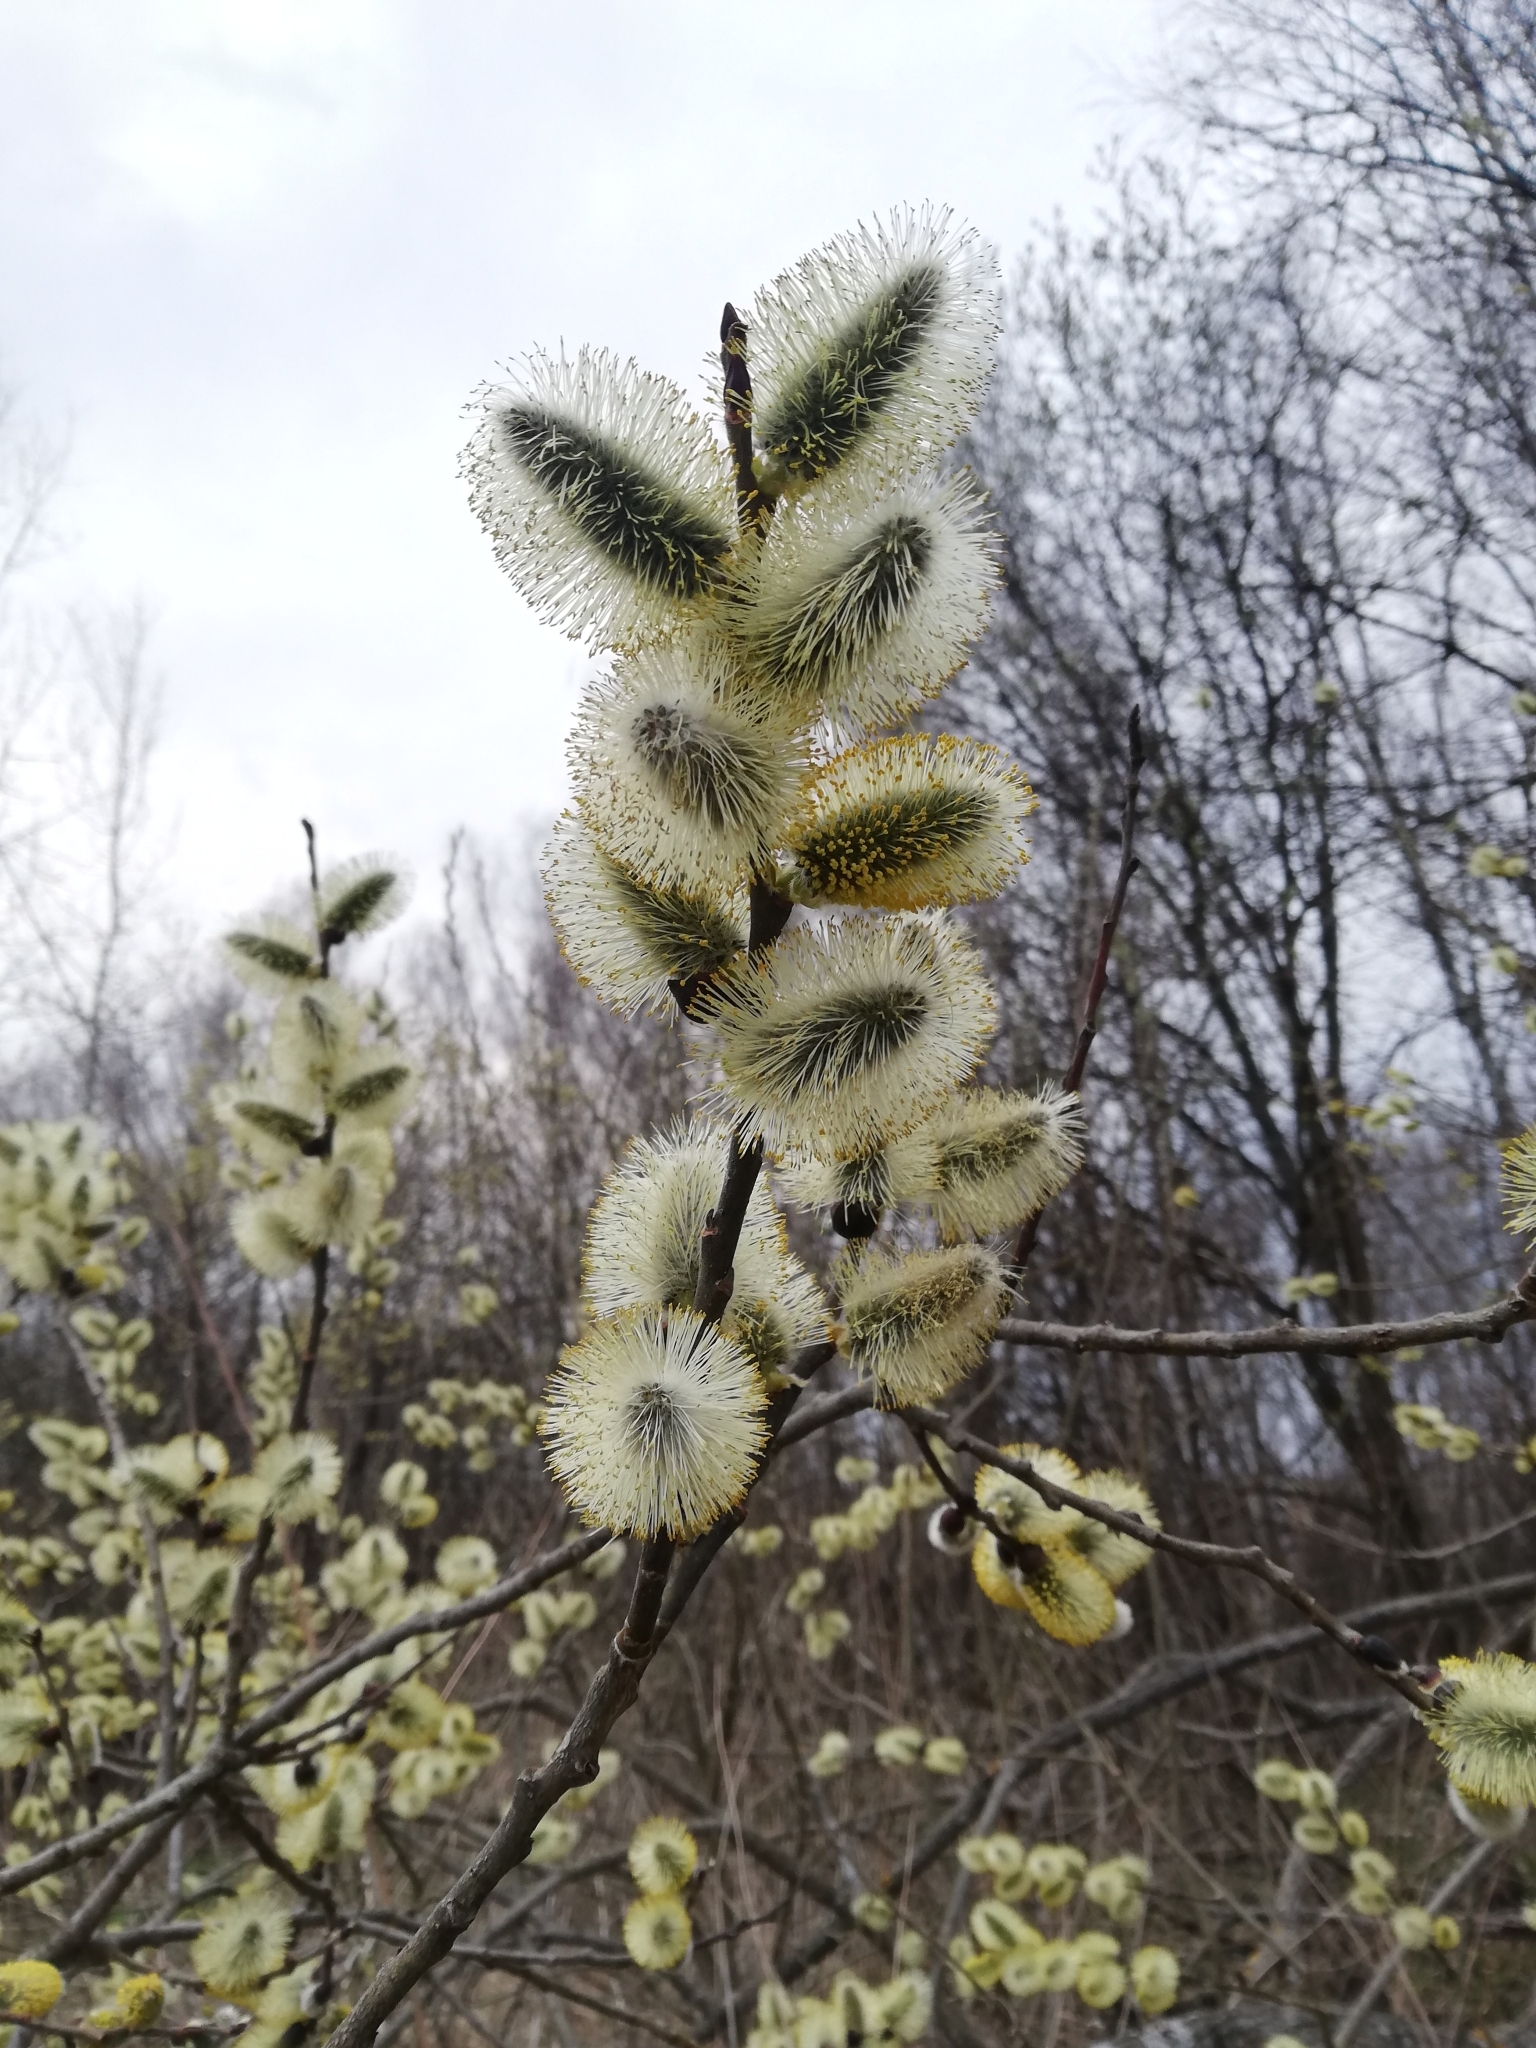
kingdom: Plantae
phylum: Tracheophyta
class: Magnoliopsida
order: Malpighiales
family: Salicaceae
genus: Salix
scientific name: Salix caprea
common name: Goat willow
